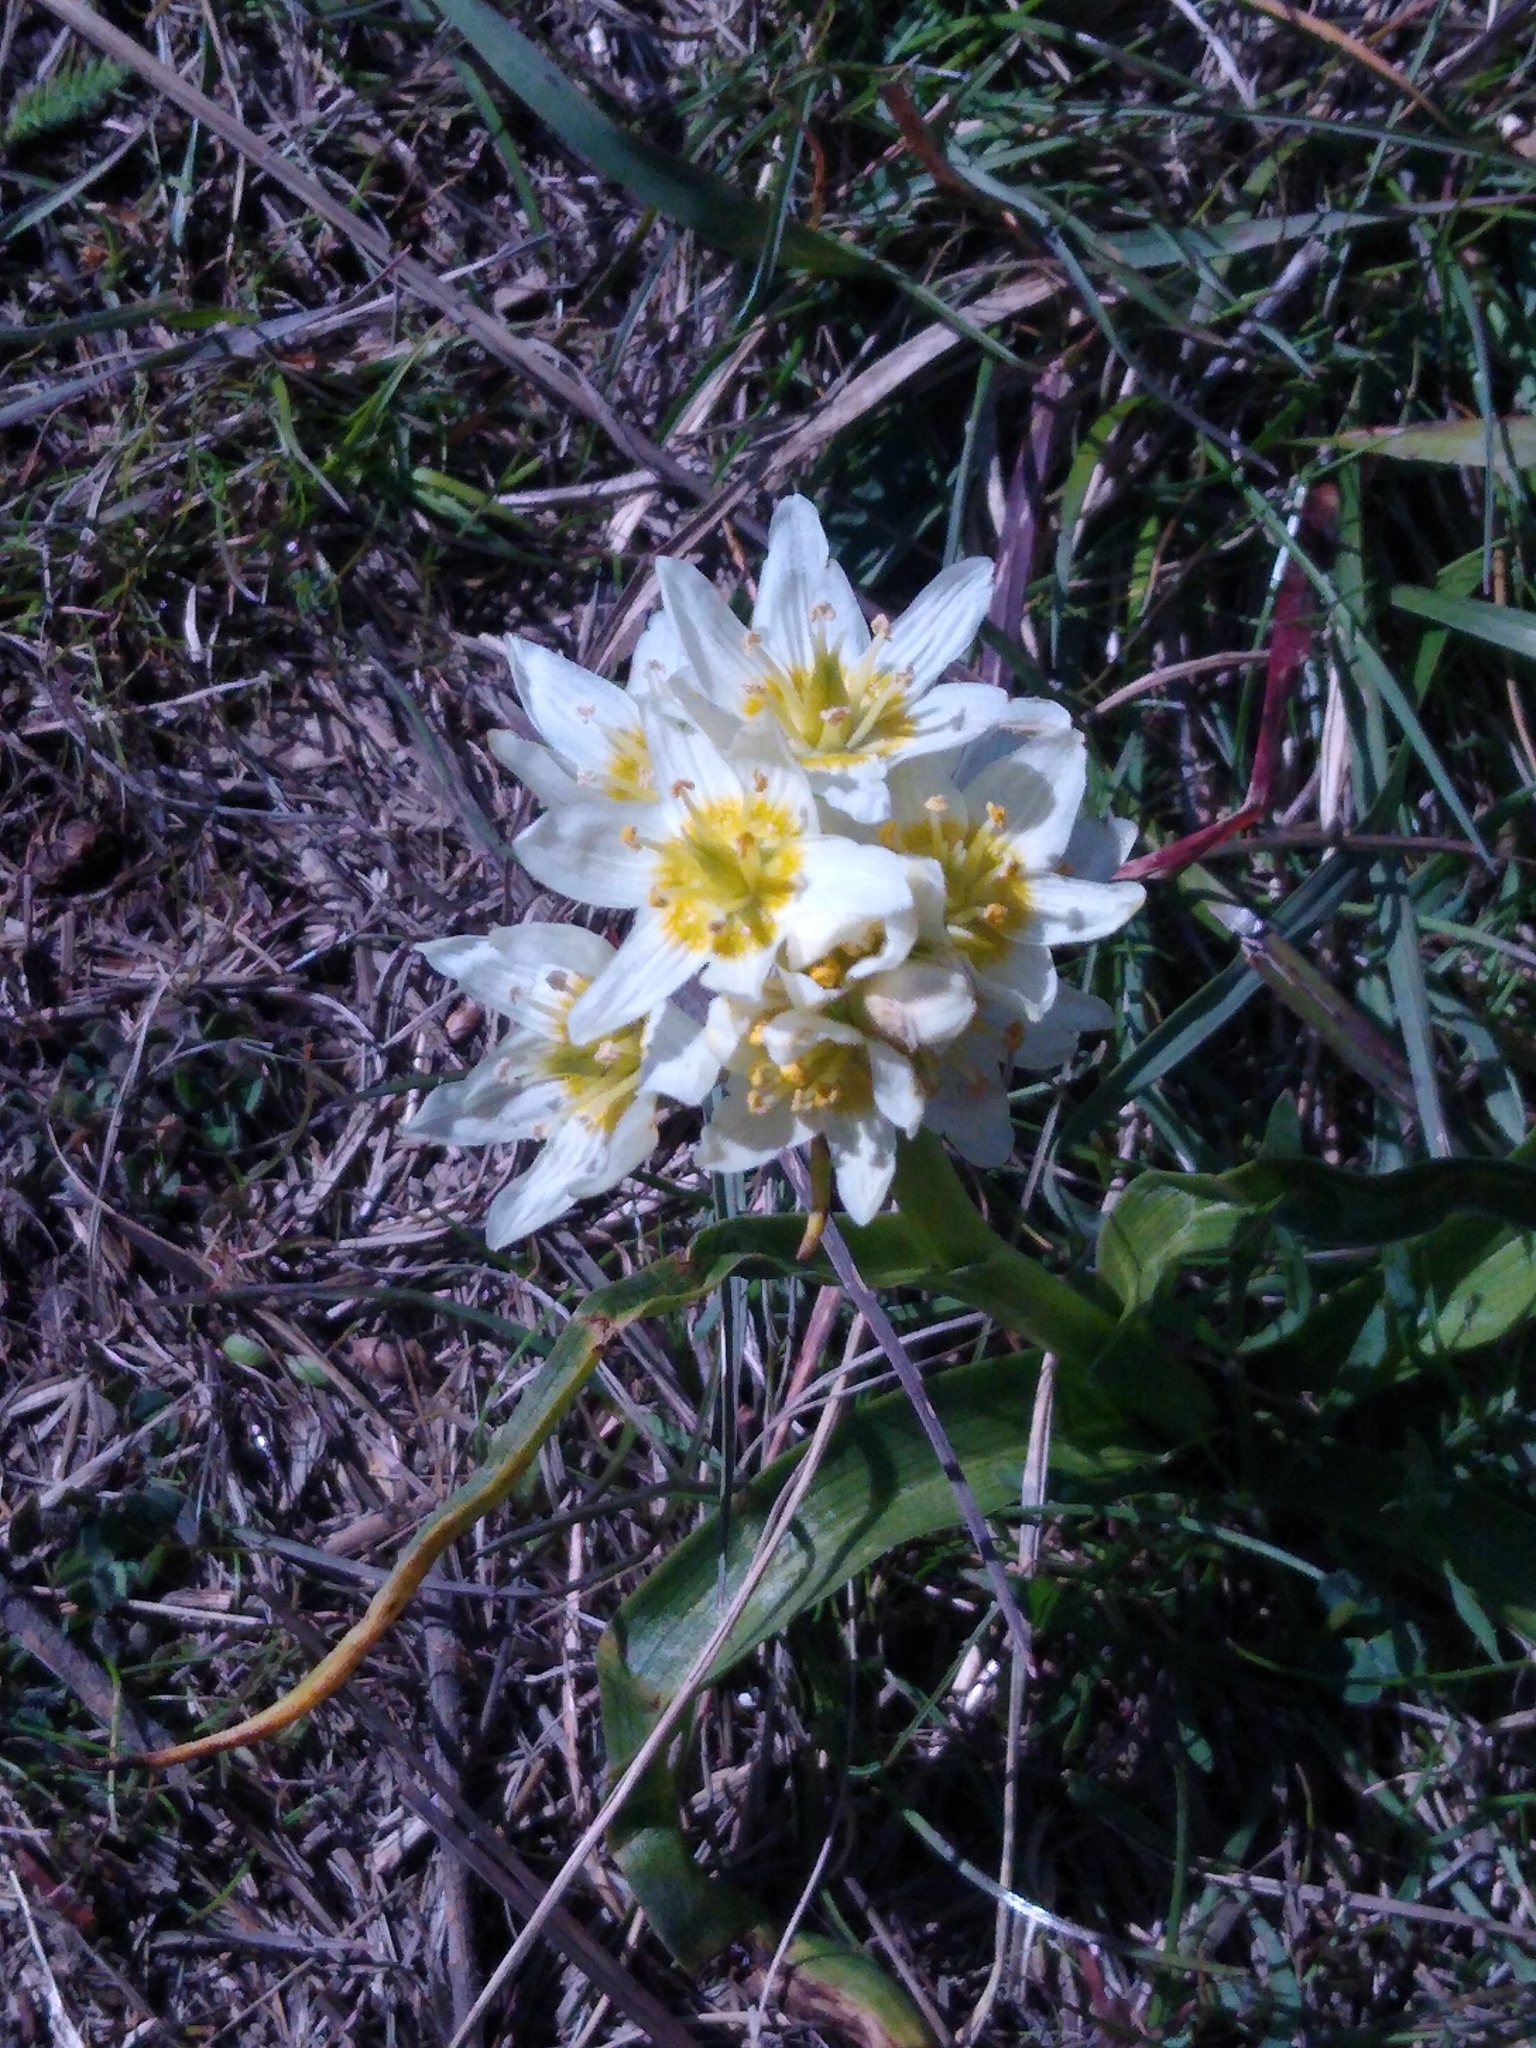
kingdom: Plantae
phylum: Tracheophyta
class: Liliopsida
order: Liliales
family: Melanthiaceae
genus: Toxicoscordion
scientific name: Toxicoscordion fremontii
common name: Fremont's death camas
